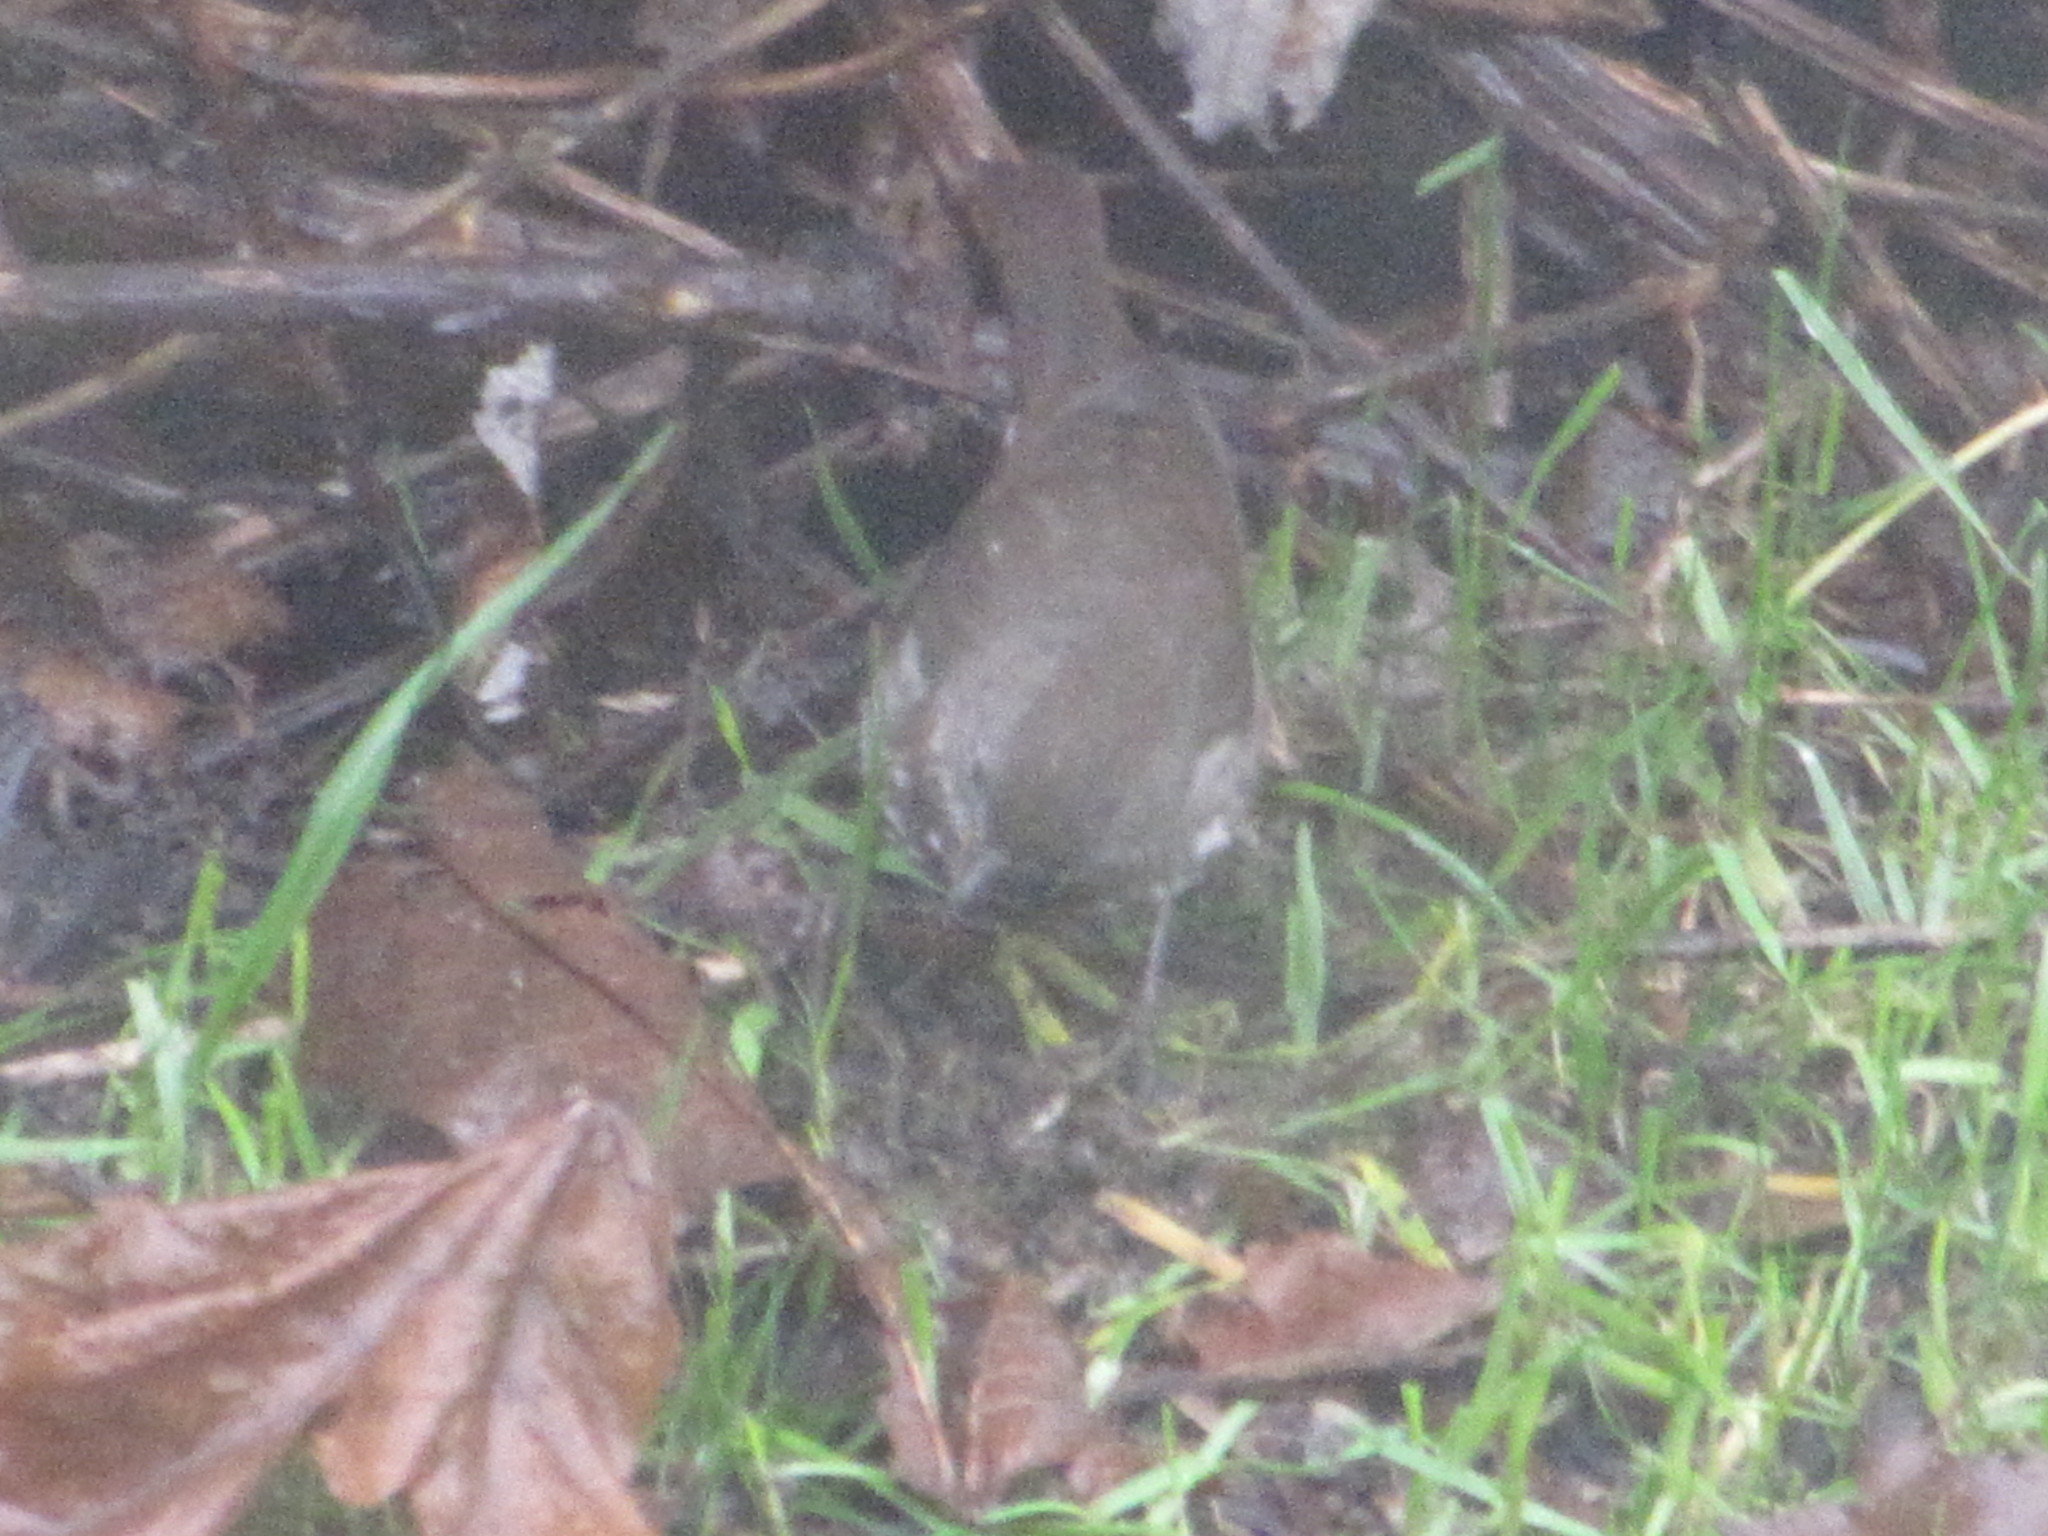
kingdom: Animalia
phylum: Chordata
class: Aves
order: Passeriformes
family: Passerellidae
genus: Passerella
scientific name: Passerella iliaca
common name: Fox sparrow
